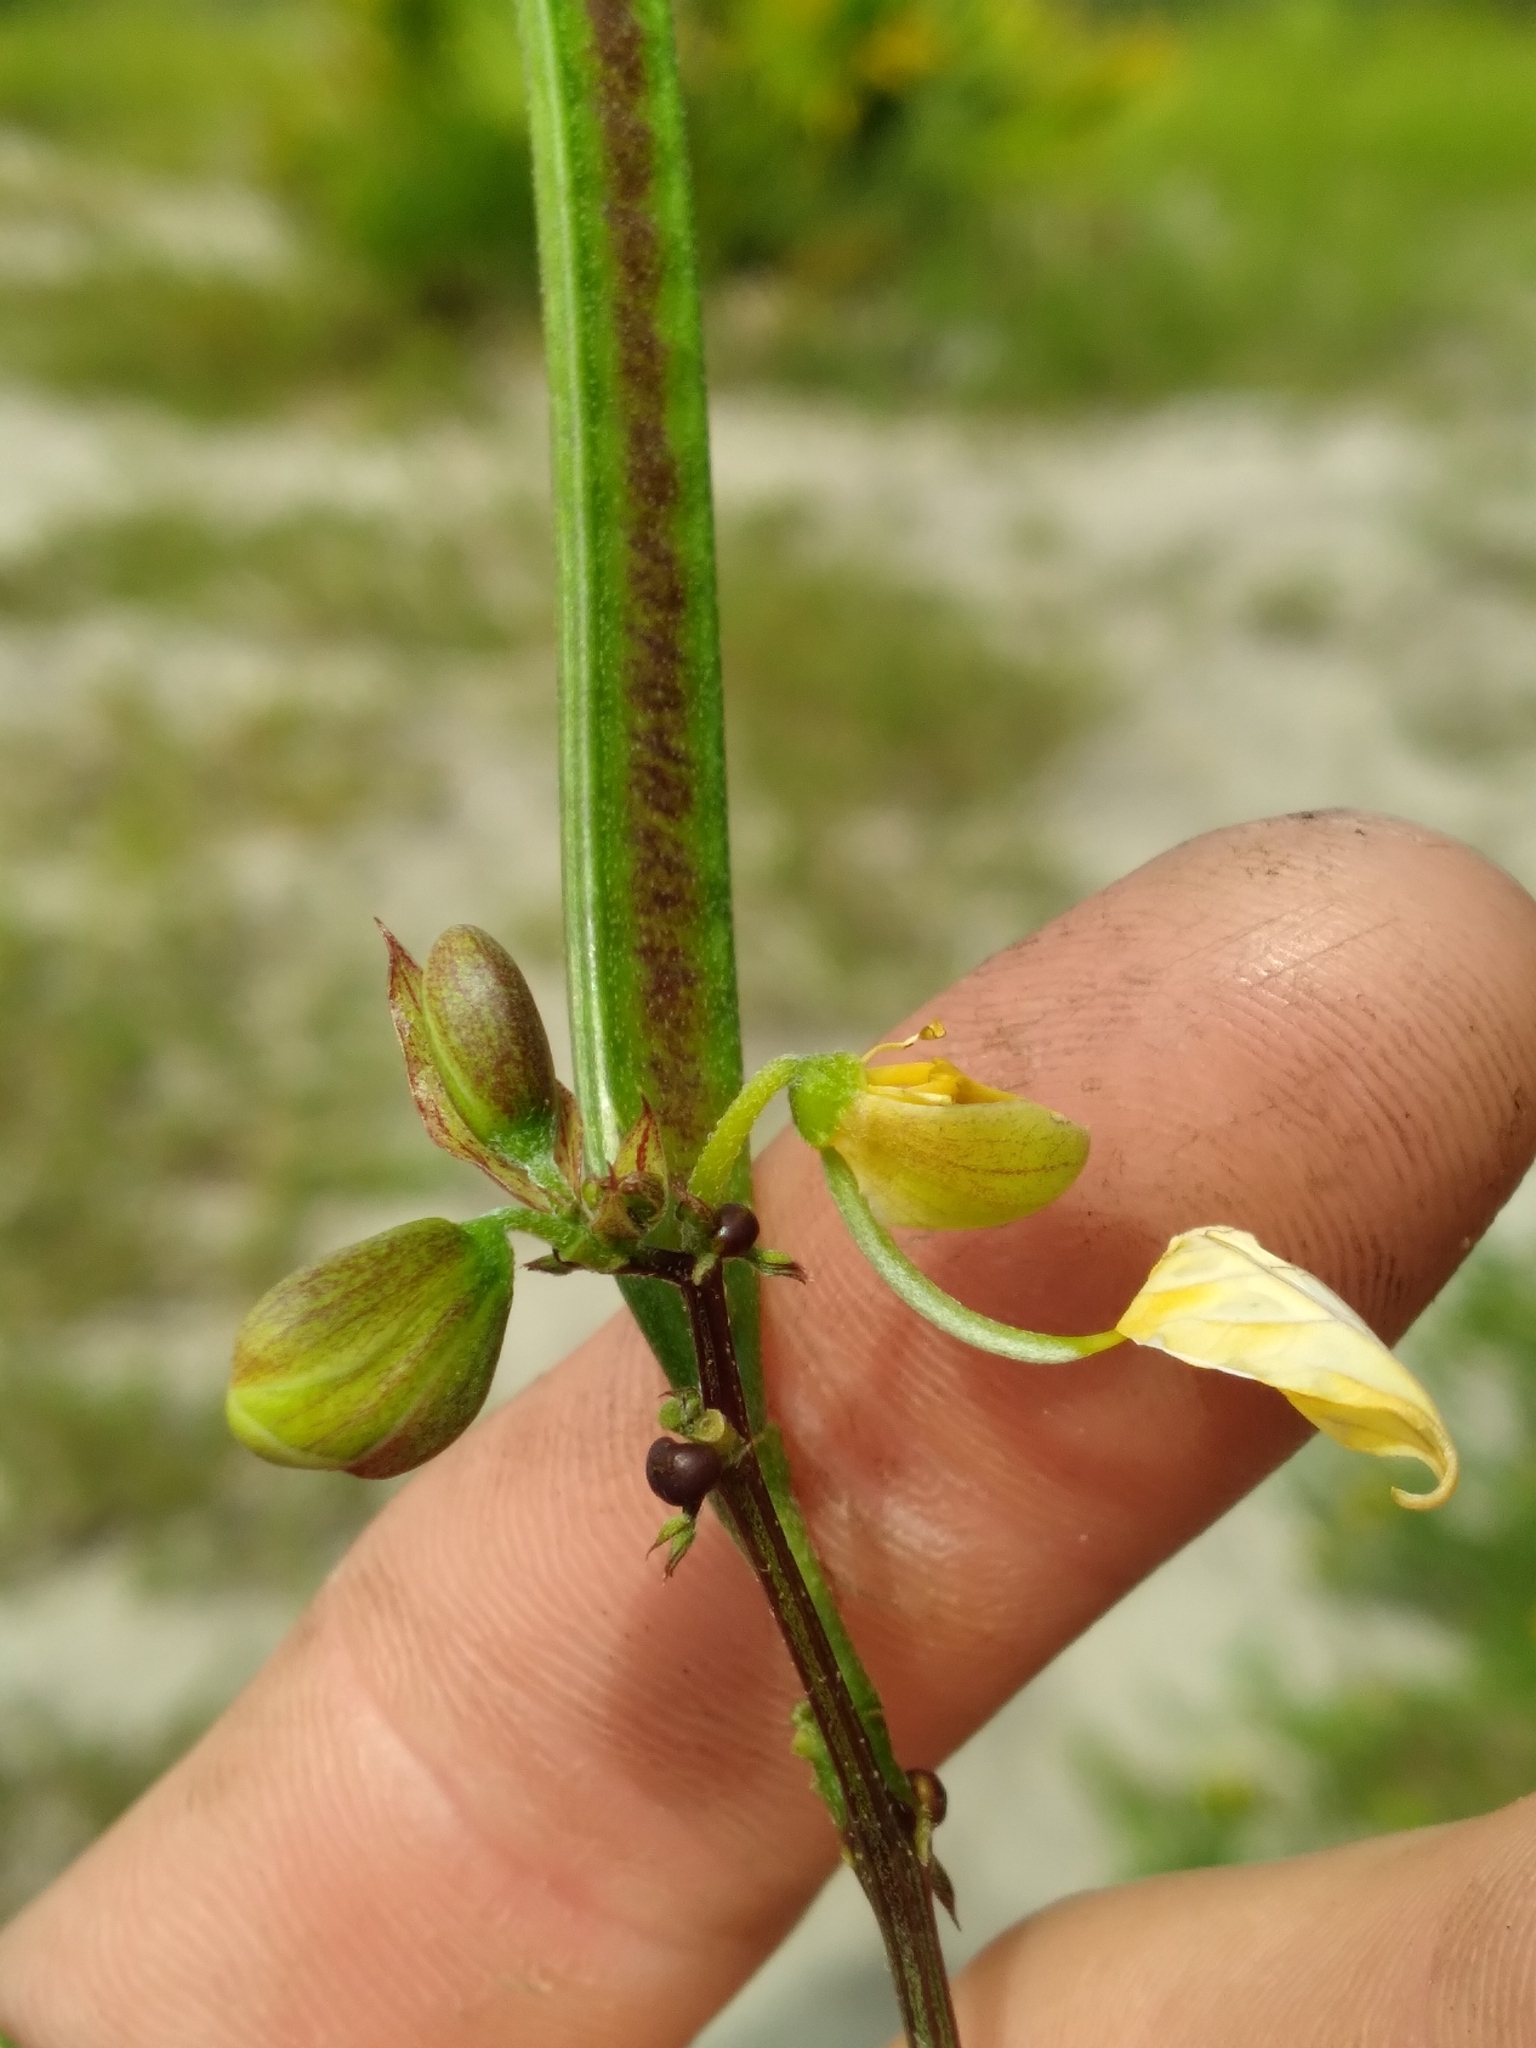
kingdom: Plantae
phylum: Tracheophyta
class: Magnoliopsida
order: Fabales
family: Fabaceae
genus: Senna
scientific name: Senna occidentalis
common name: Septicweed
